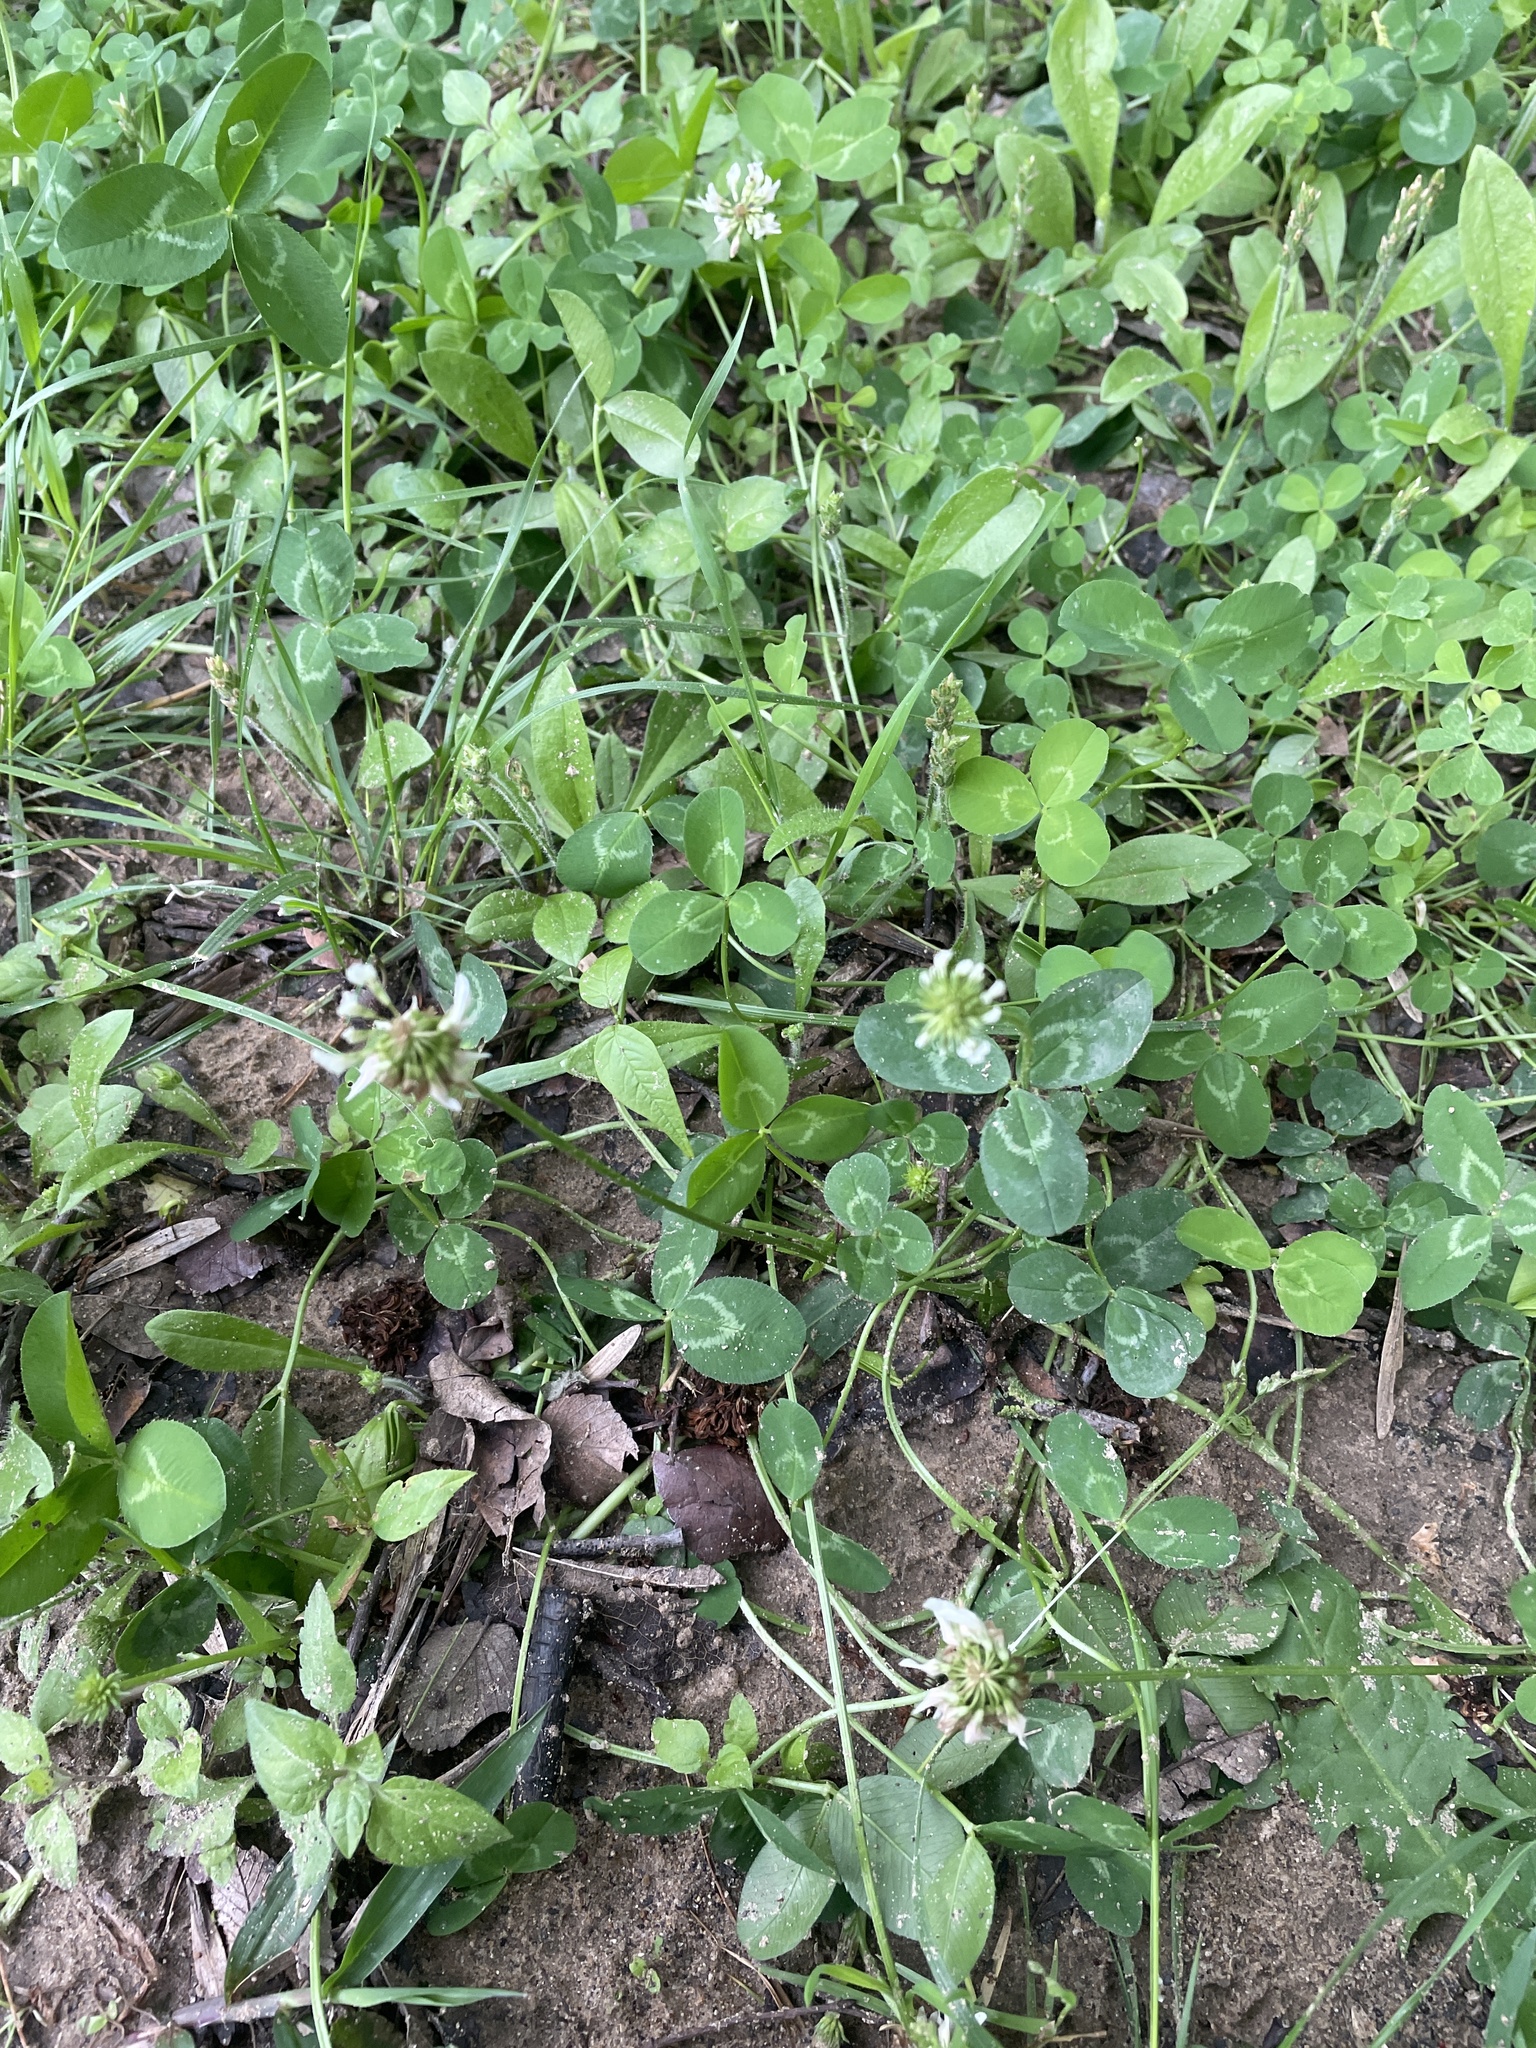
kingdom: Plantae
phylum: Tracheophyta
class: Magnoliopsida
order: Fabales
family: Fabaceae
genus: Trifolium
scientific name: Trifolium repens
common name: White clover
